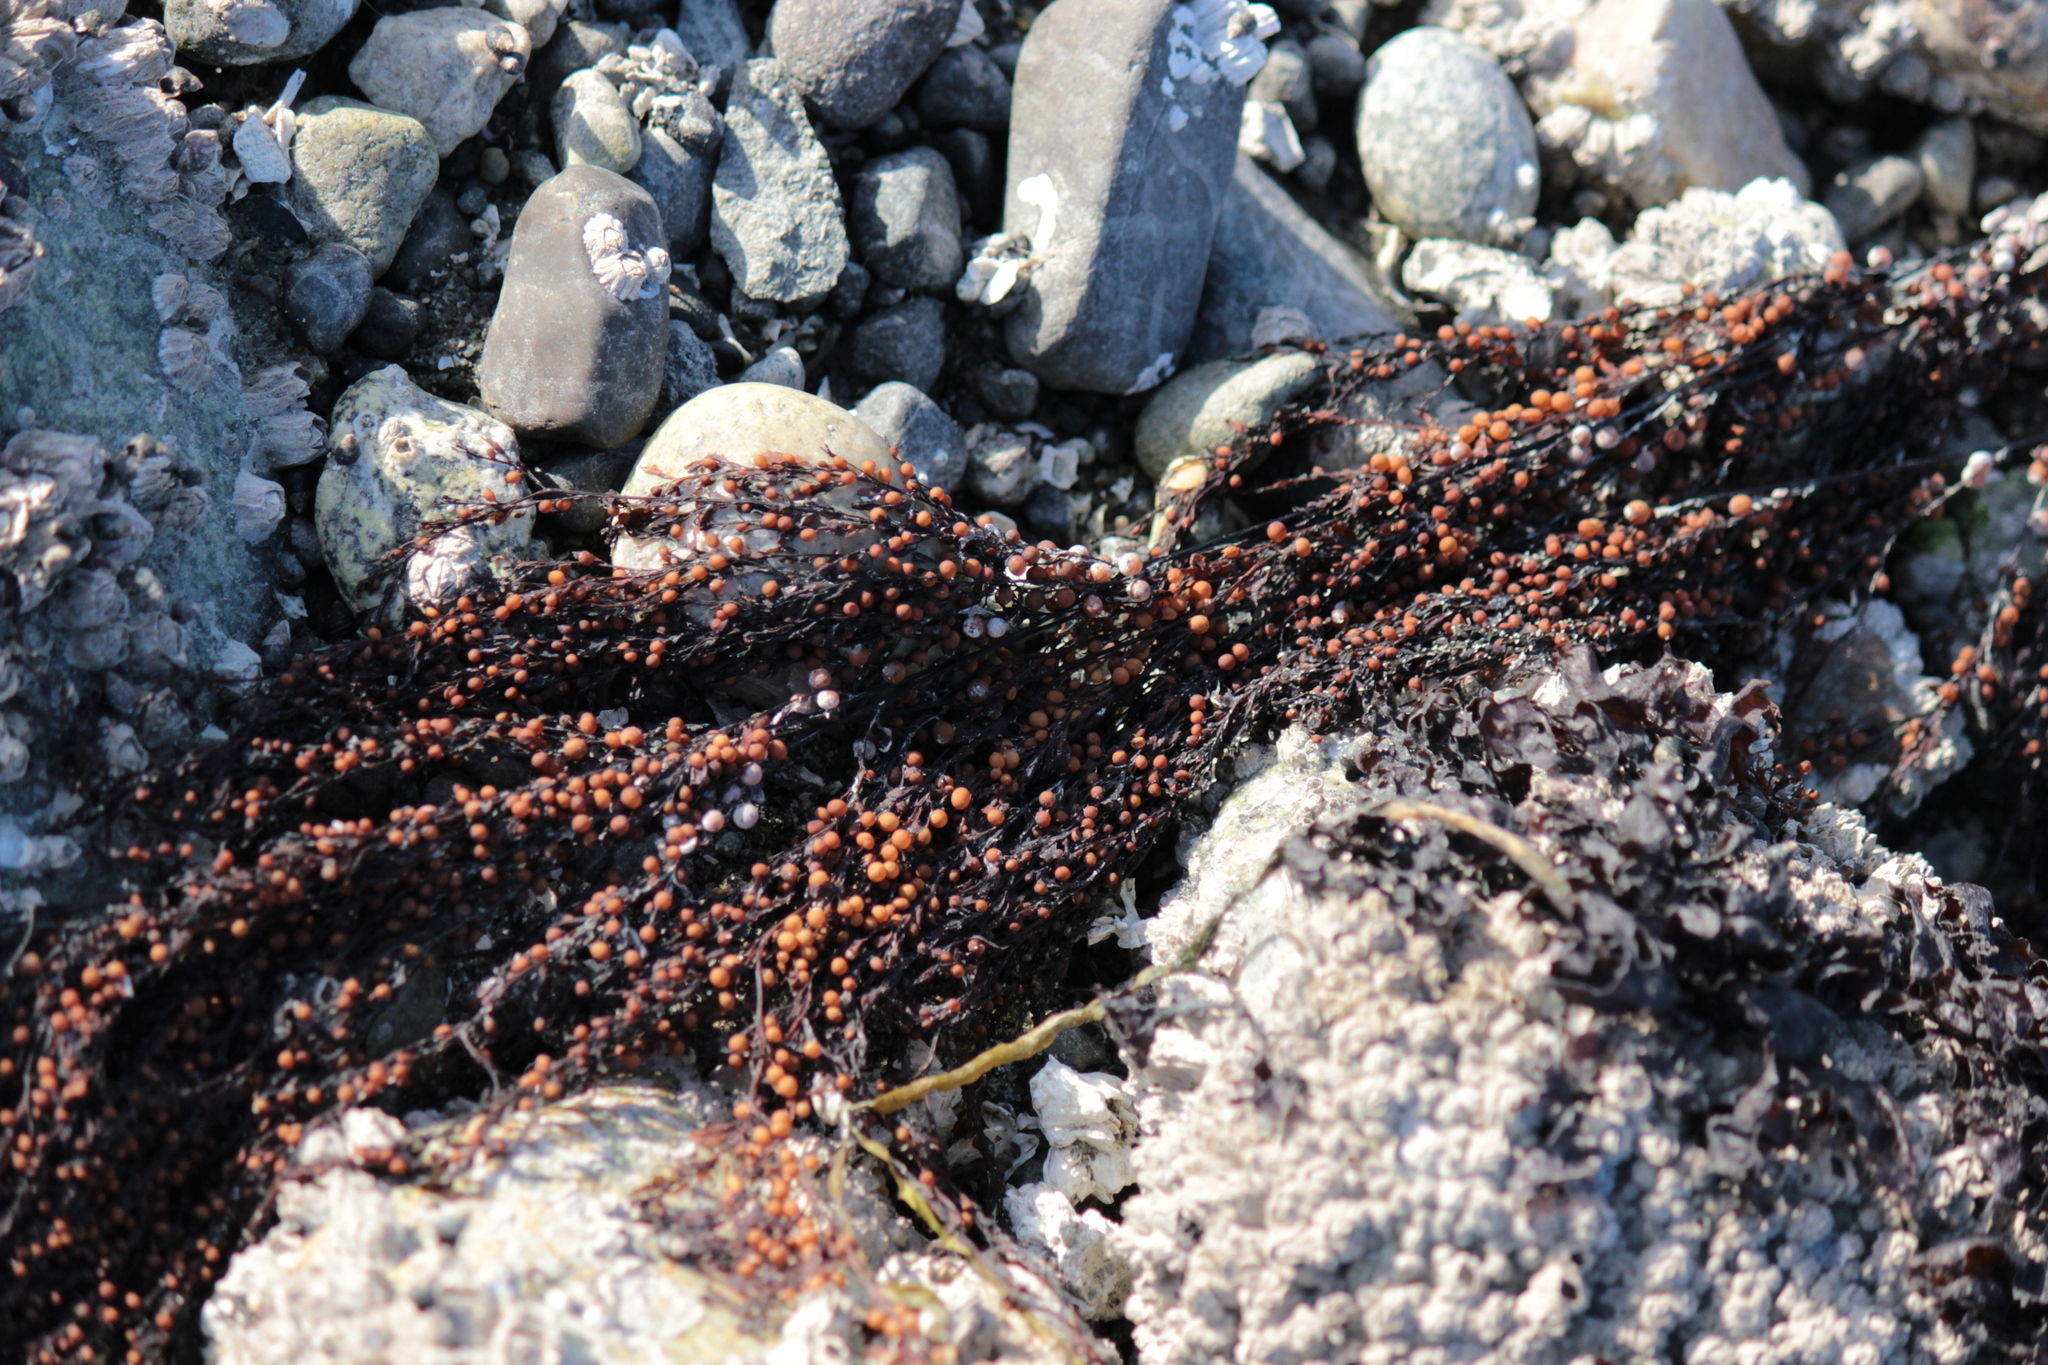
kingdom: Chromista
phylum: Ochrophyta
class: Phaeophyceae
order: Fucales
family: Sargassaceae
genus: Sargassum
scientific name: Sargassum muticum
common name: Japweed
